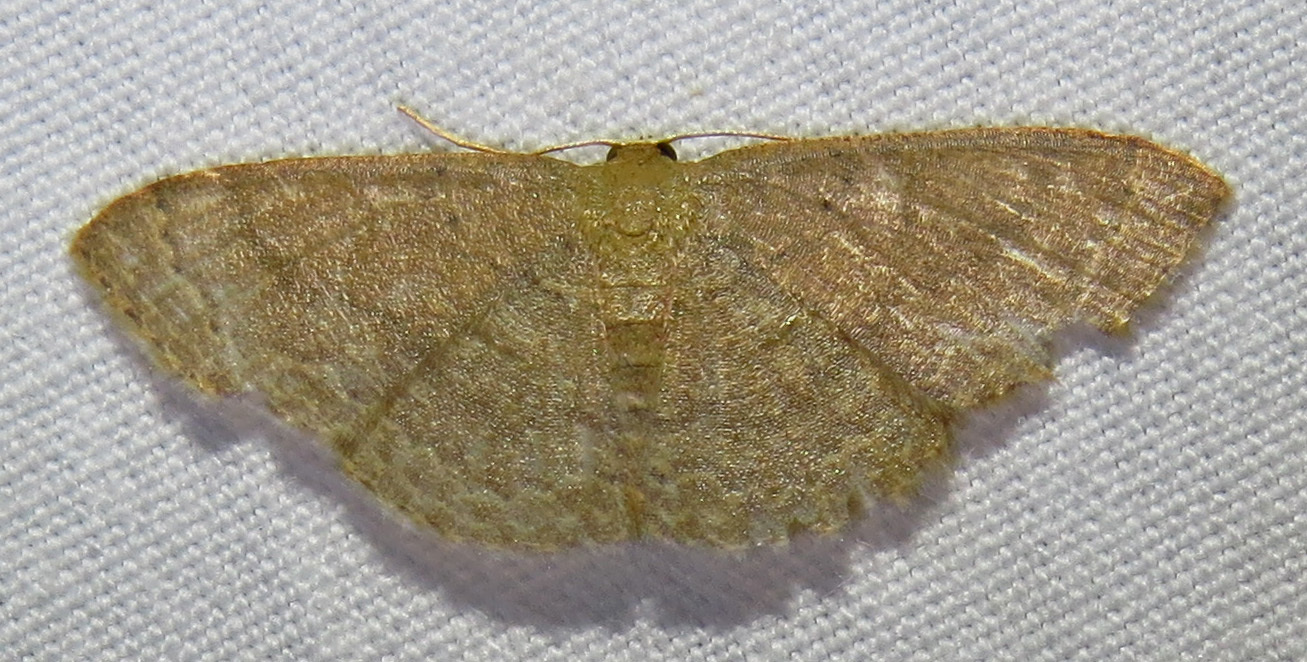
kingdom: Animalia
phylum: Arthropoda
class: Insecta
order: Lepidoptera
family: Geometridae
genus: Pleuroprucha
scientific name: Pleuroprucha insulsaria
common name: Common tan wave
